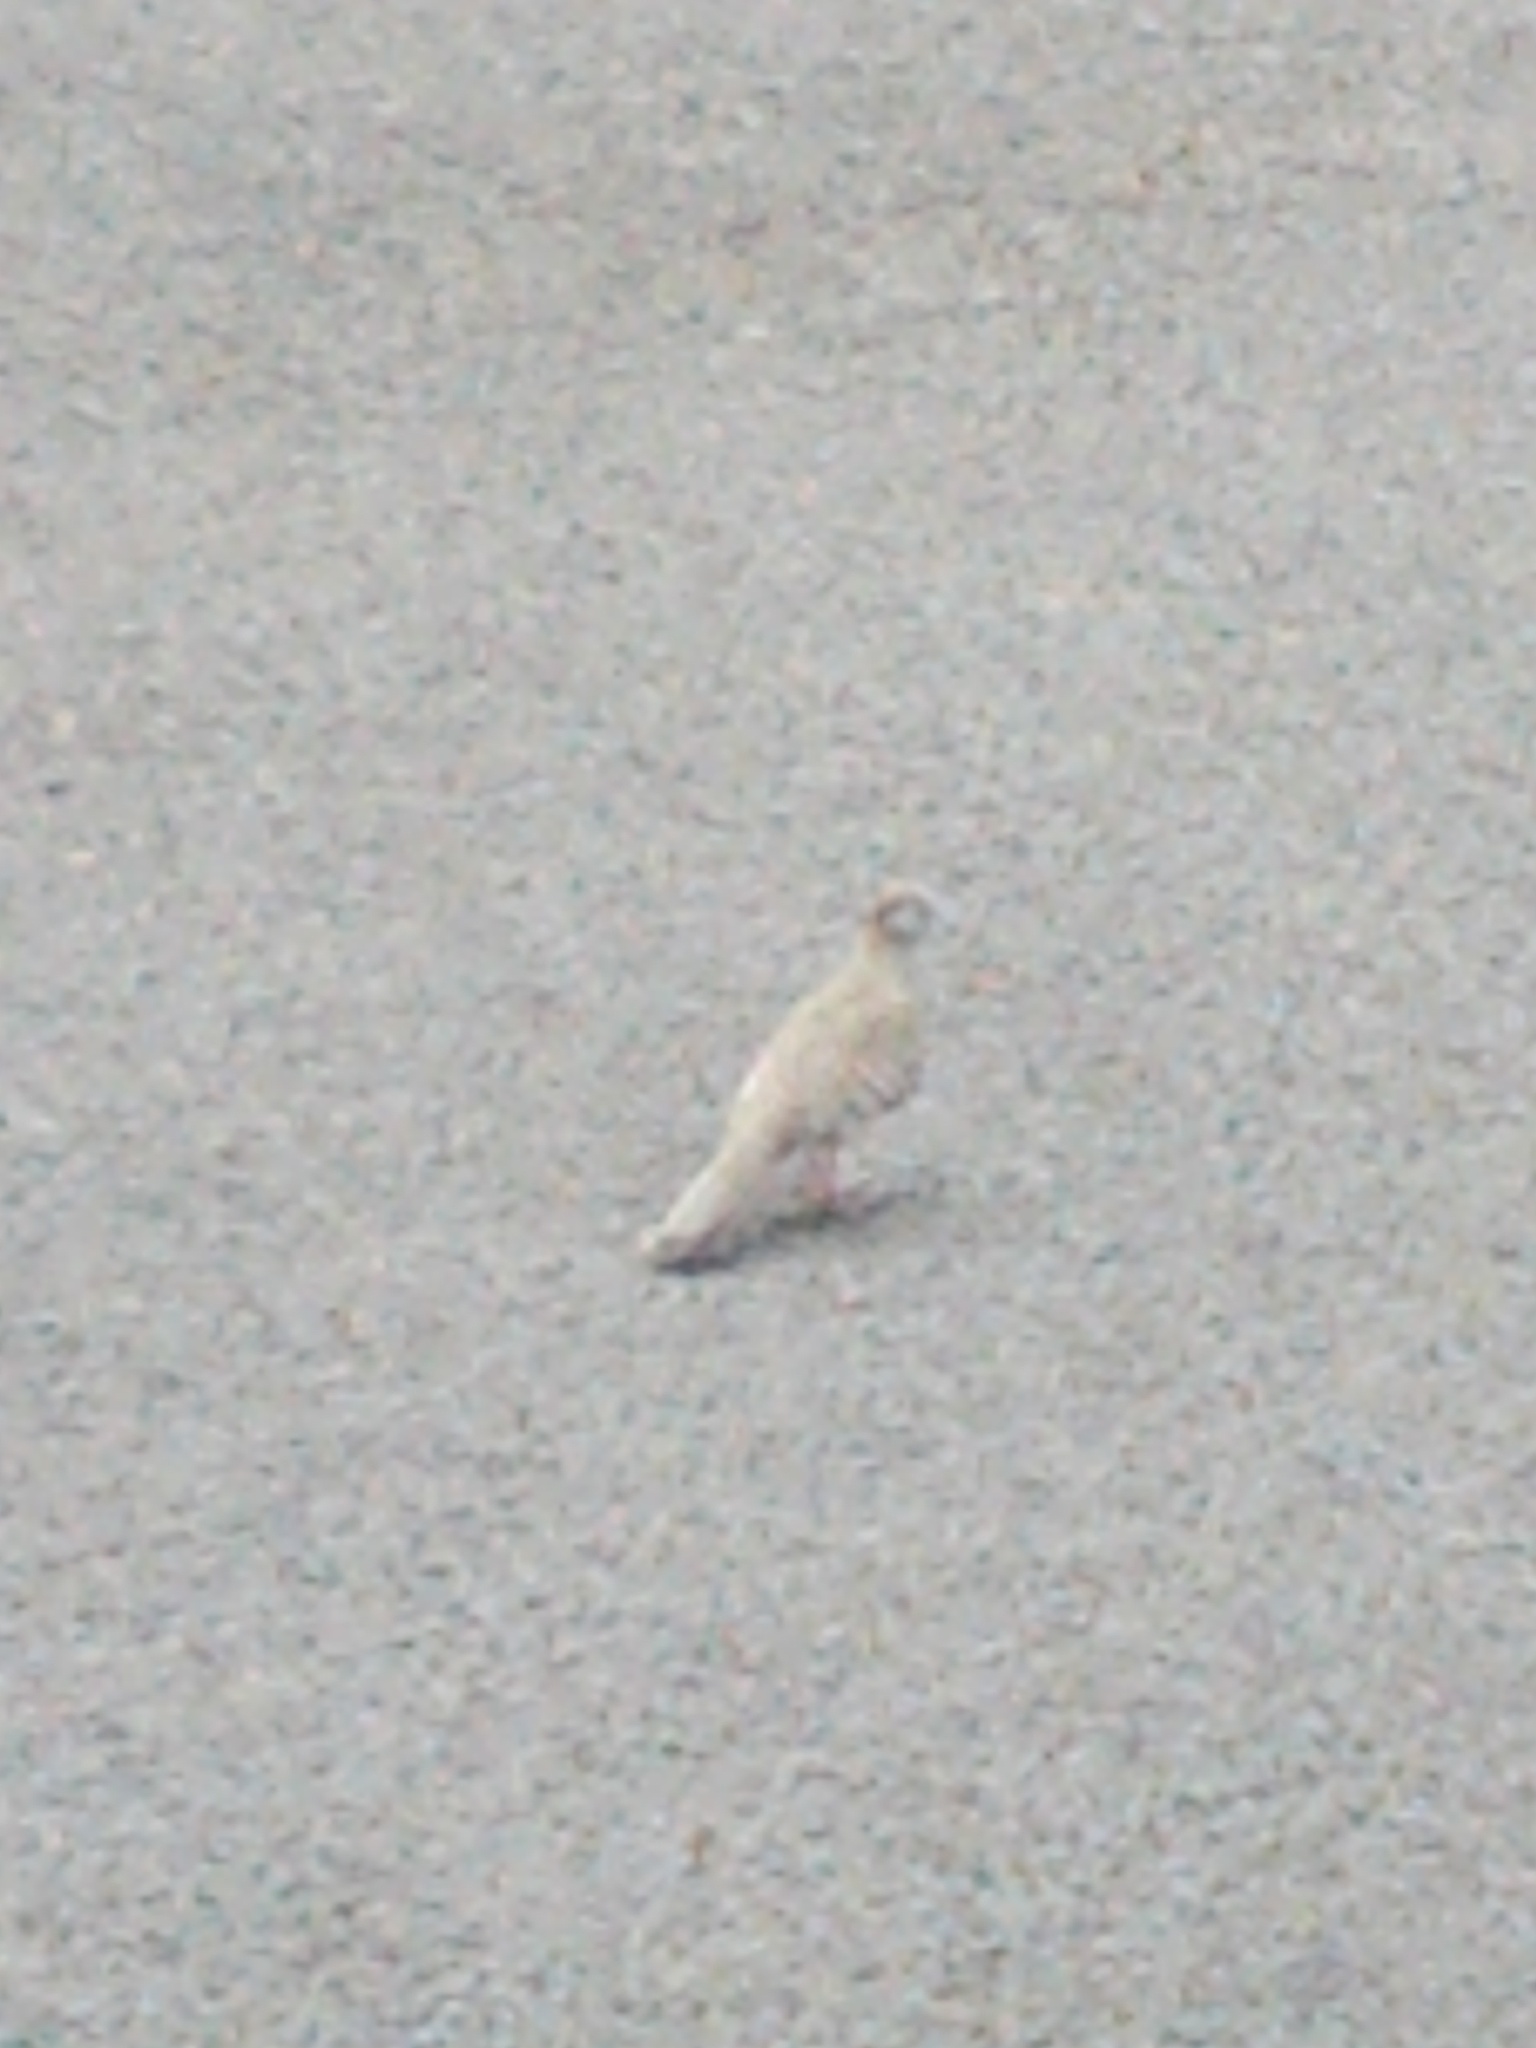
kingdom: Animalia
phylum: Chordata
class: Aves
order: Columbiformes
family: Columbidae
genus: Geopelia
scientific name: Geopelia striata
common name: Zebra dove
